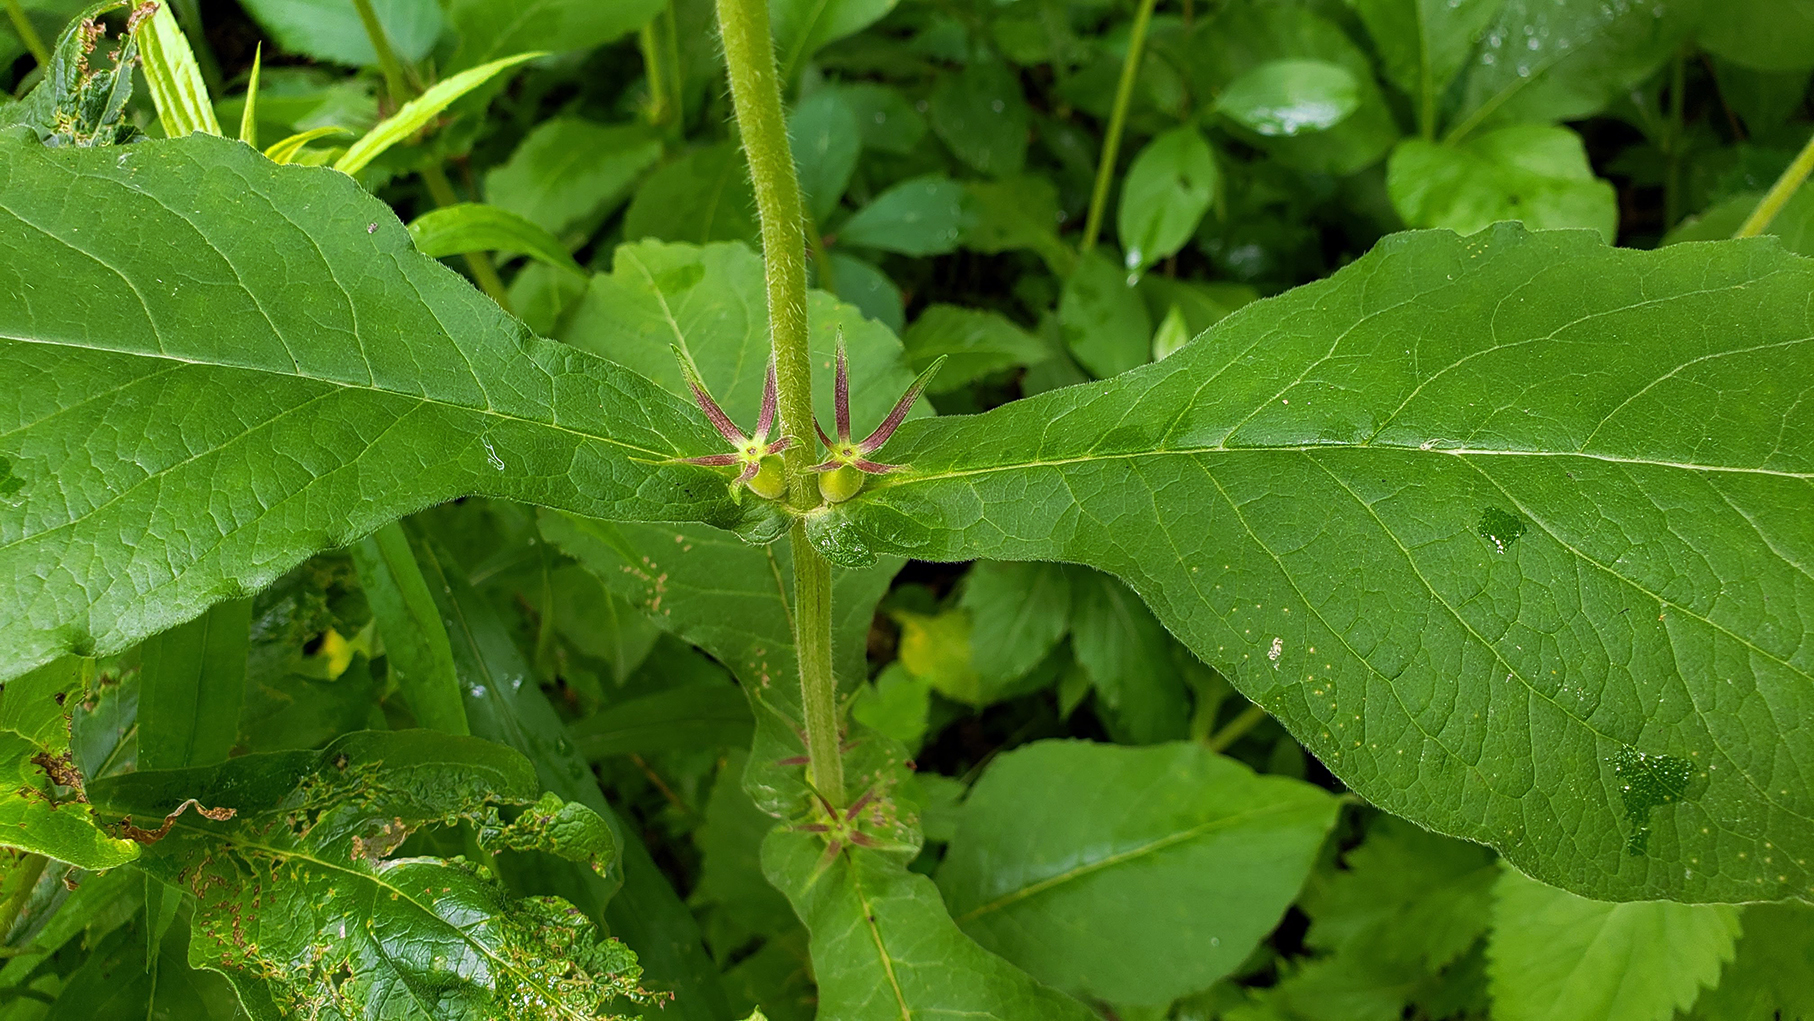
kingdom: Plantae
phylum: Tracheophyta
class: Magnoliopsida
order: Dipsacales
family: Caprifoliaceae
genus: Triosteum
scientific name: Triosteum aurantiacum
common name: Coffee tinker's-weed
